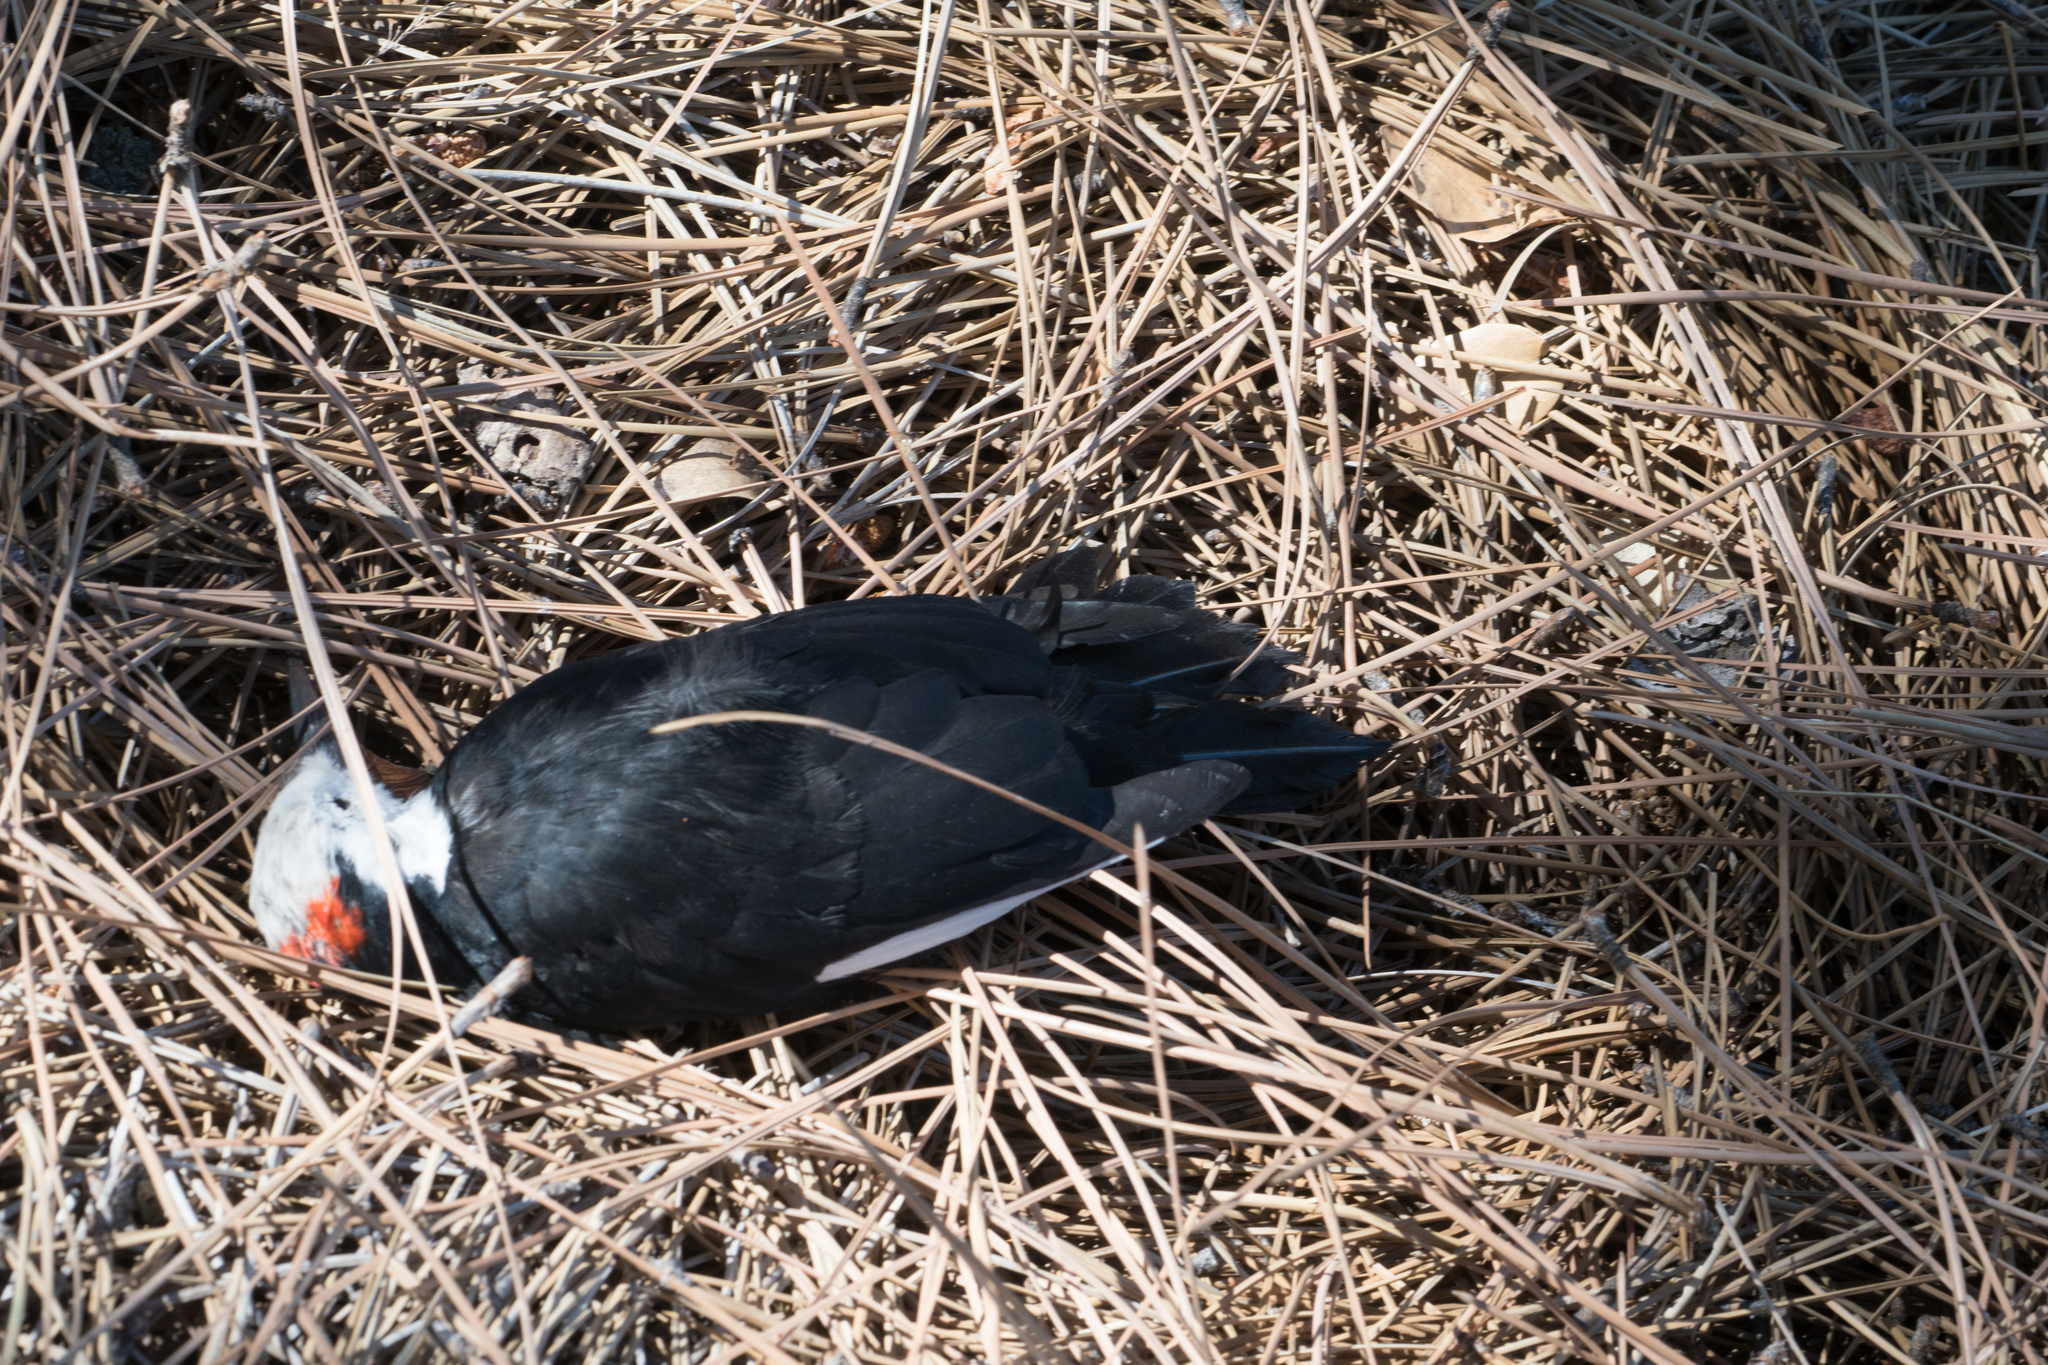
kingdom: Animalia
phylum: Chordata
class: Aves
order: Piciformes
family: Picidae
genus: Leuconotopicus
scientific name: Leuconotopicus albolarvatus
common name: White-headed woodpecker
